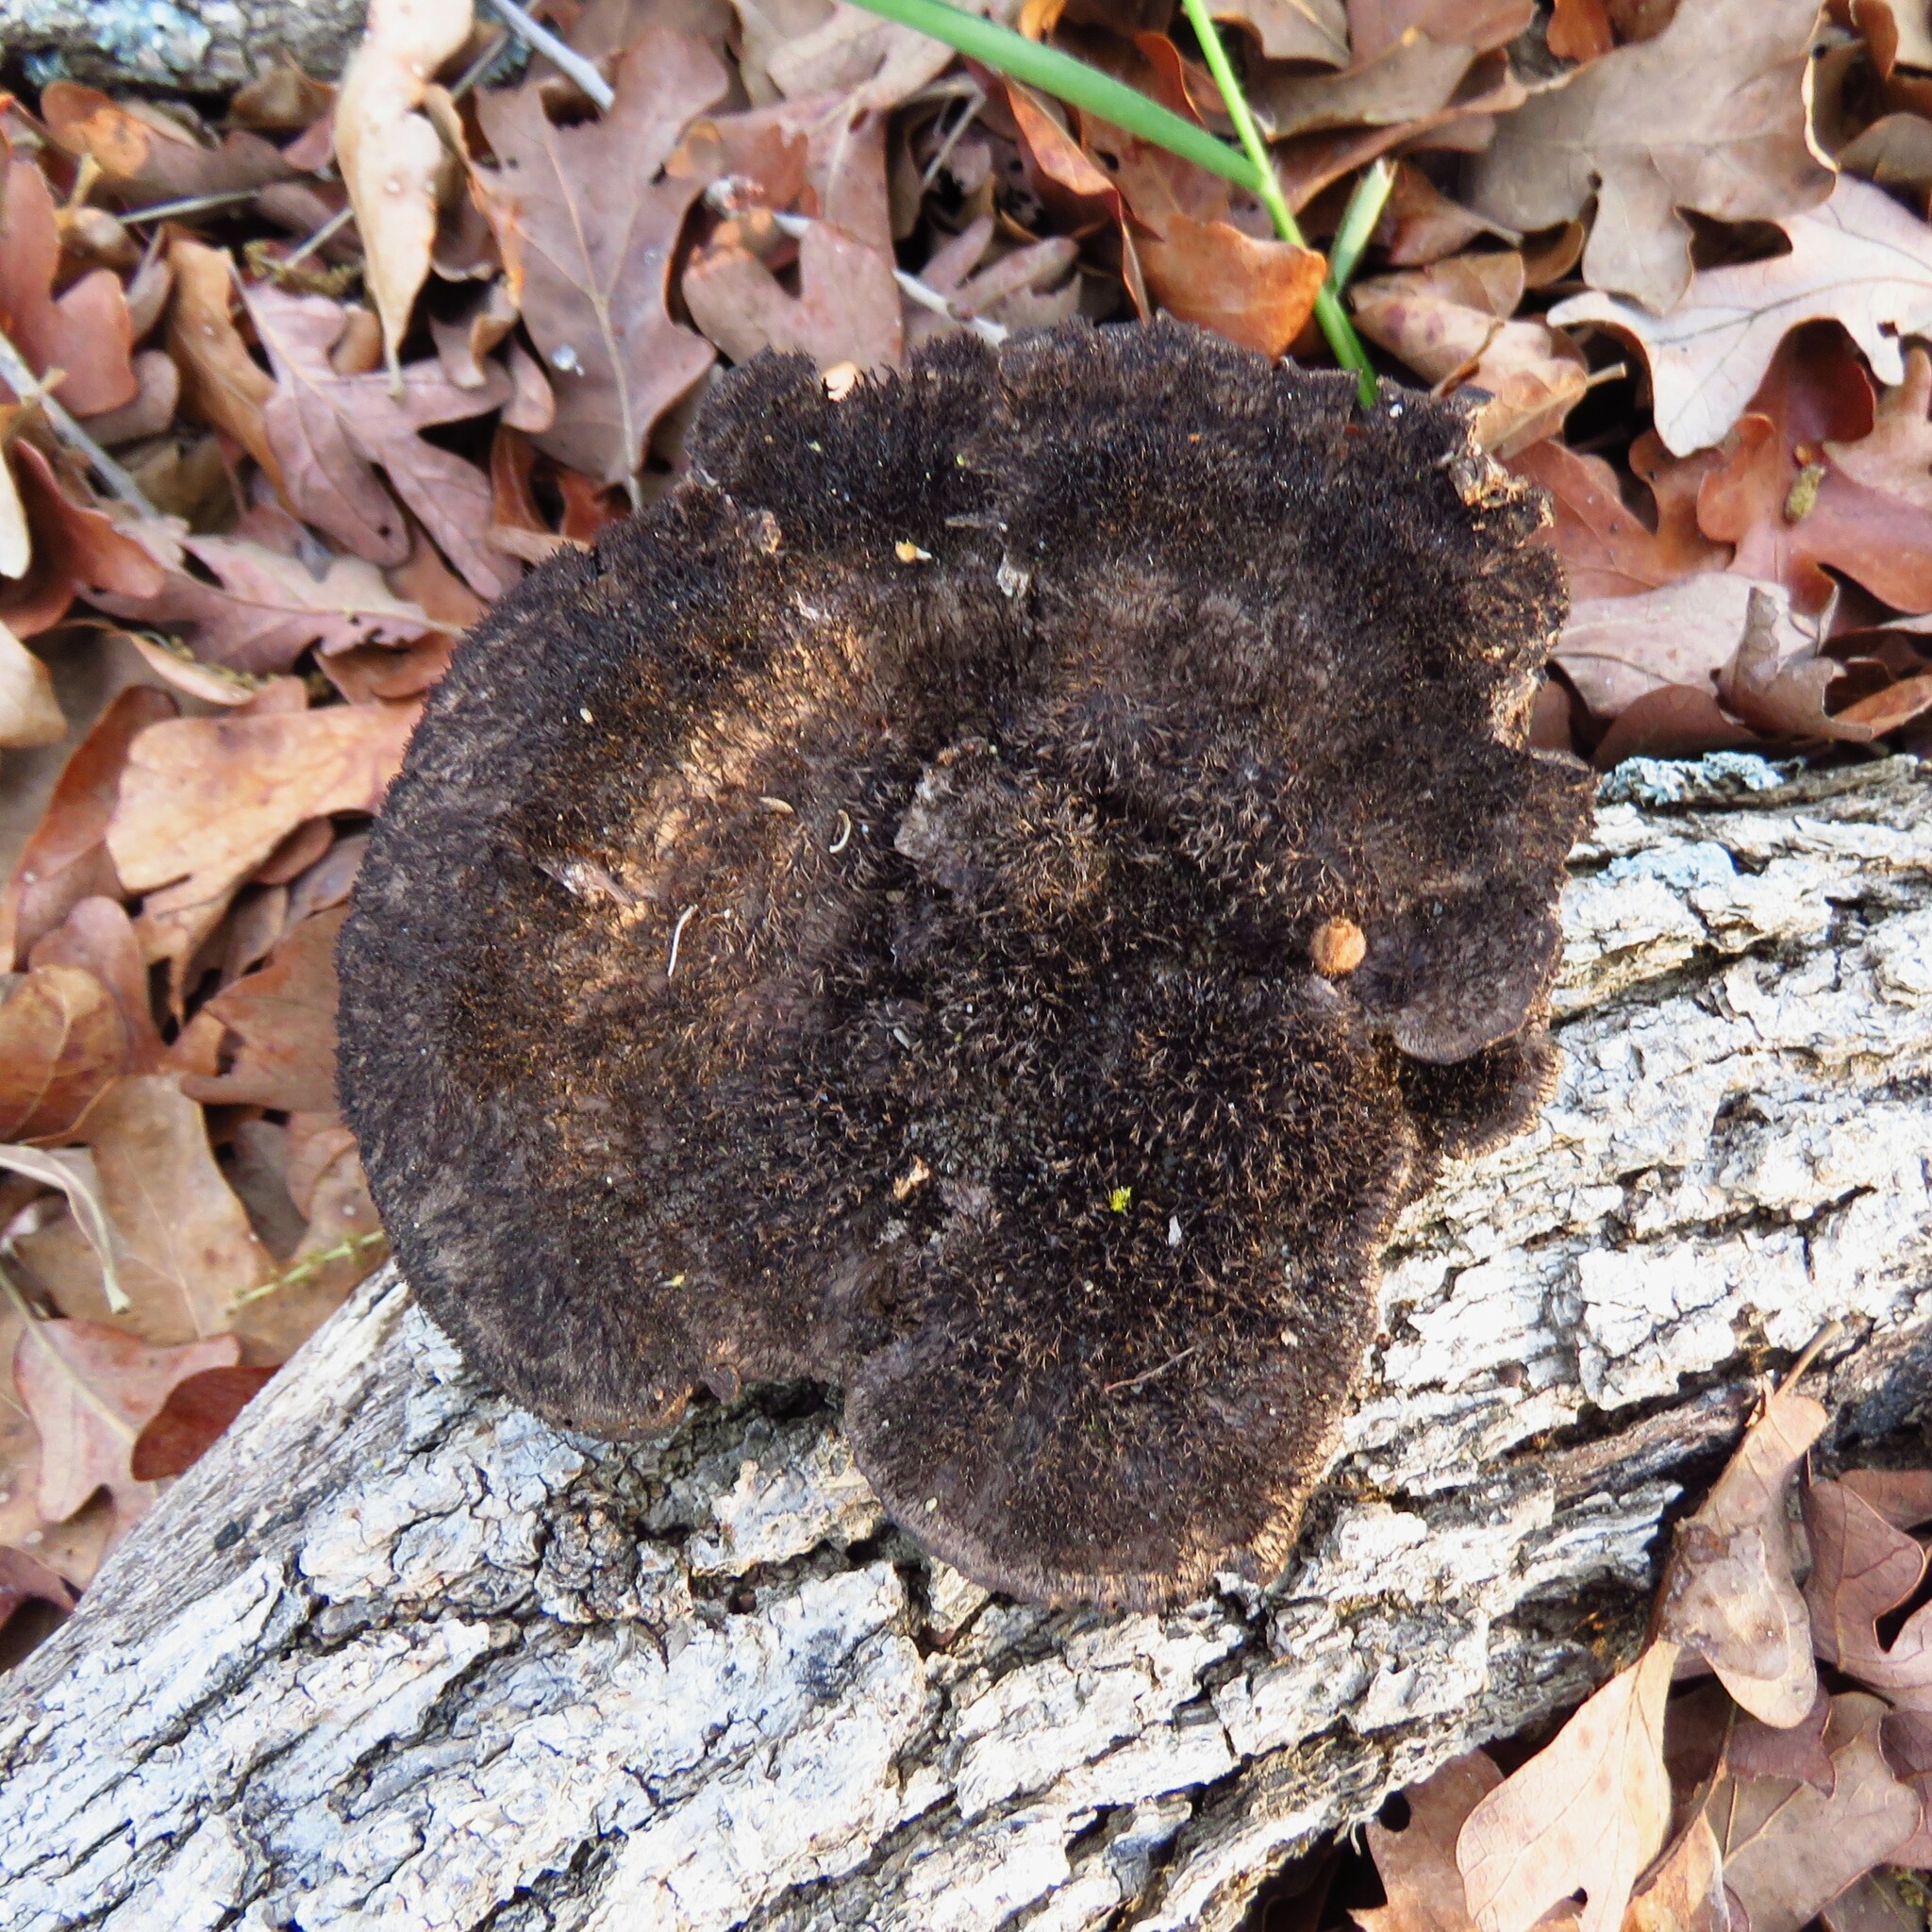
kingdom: Fungi
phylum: Basidiomycota
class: Agaricomycetes
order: Polyporales
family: Cerrenaceae
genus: Cerrena
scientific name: Cerrena hydnoides
